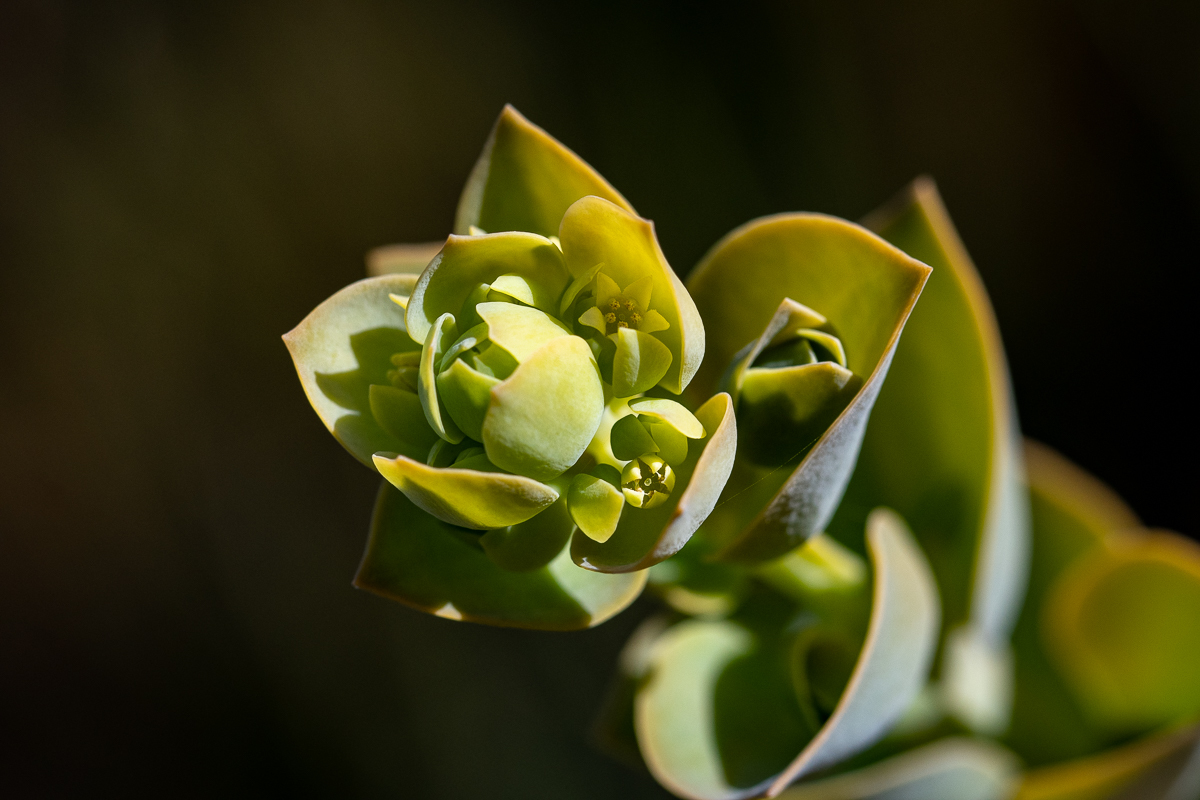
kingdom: Plantae
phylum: Tracheophyta
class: Magnoliopsida
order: Santalales
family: Thesiaceae
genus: Thesium
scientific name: Thesium euphorbioides
